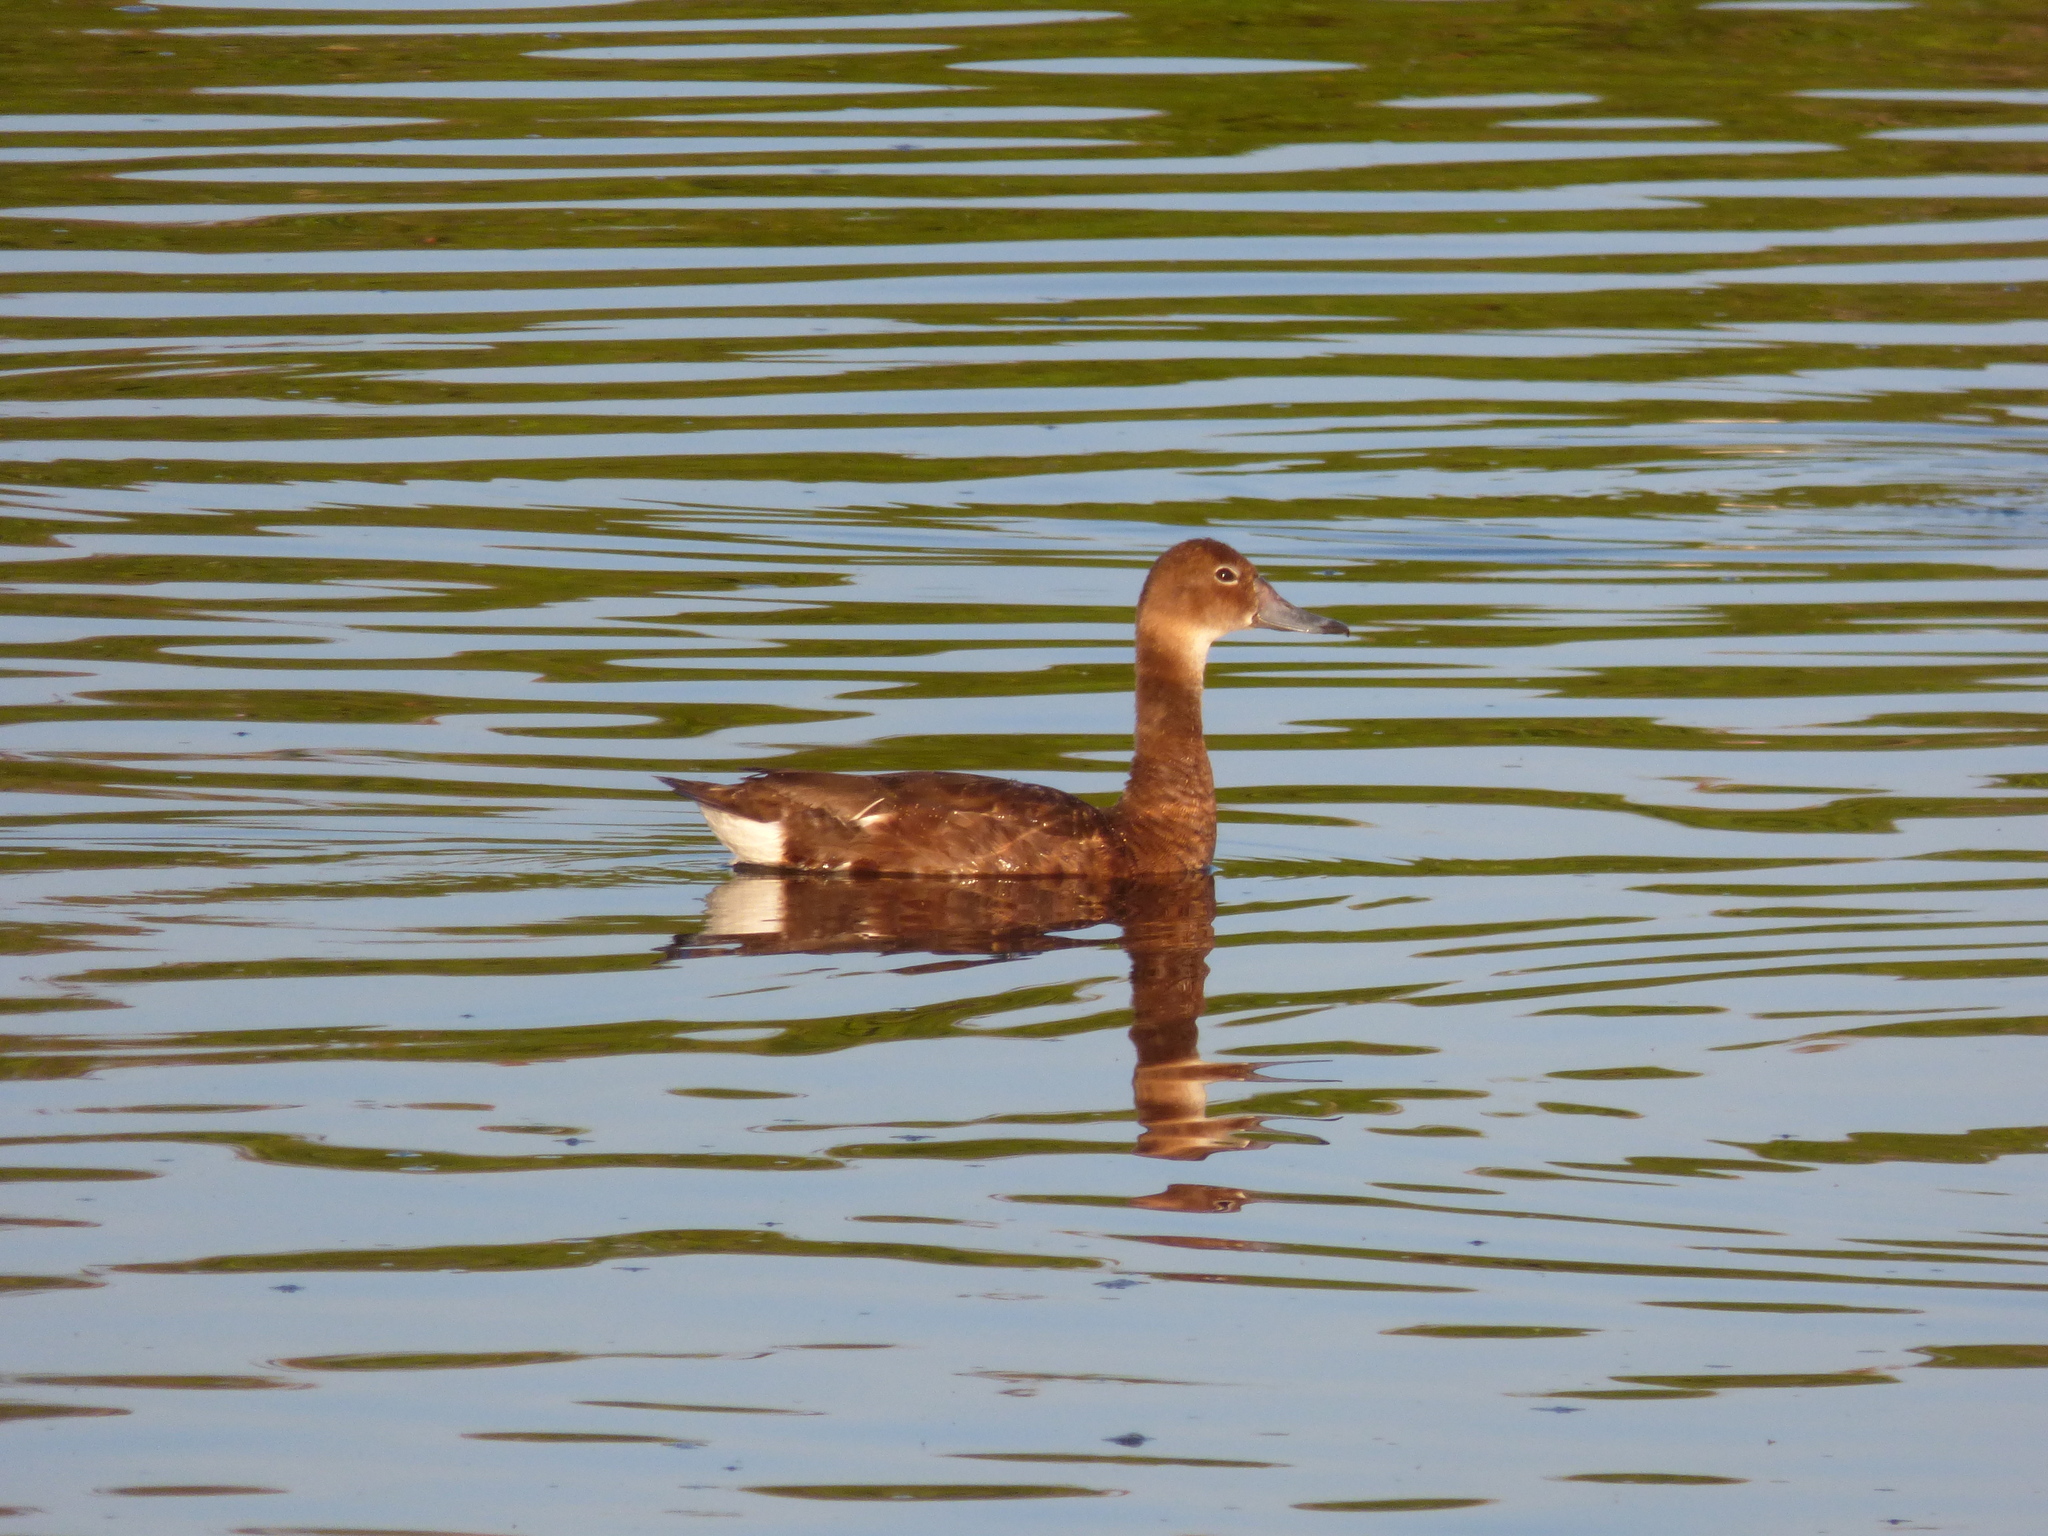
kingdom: Animalia
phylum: Chordata
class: Aves
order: Anseriformes
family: Anatidae
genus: Netta
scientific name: Netta peposaca
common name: Rosy-billed pochard
